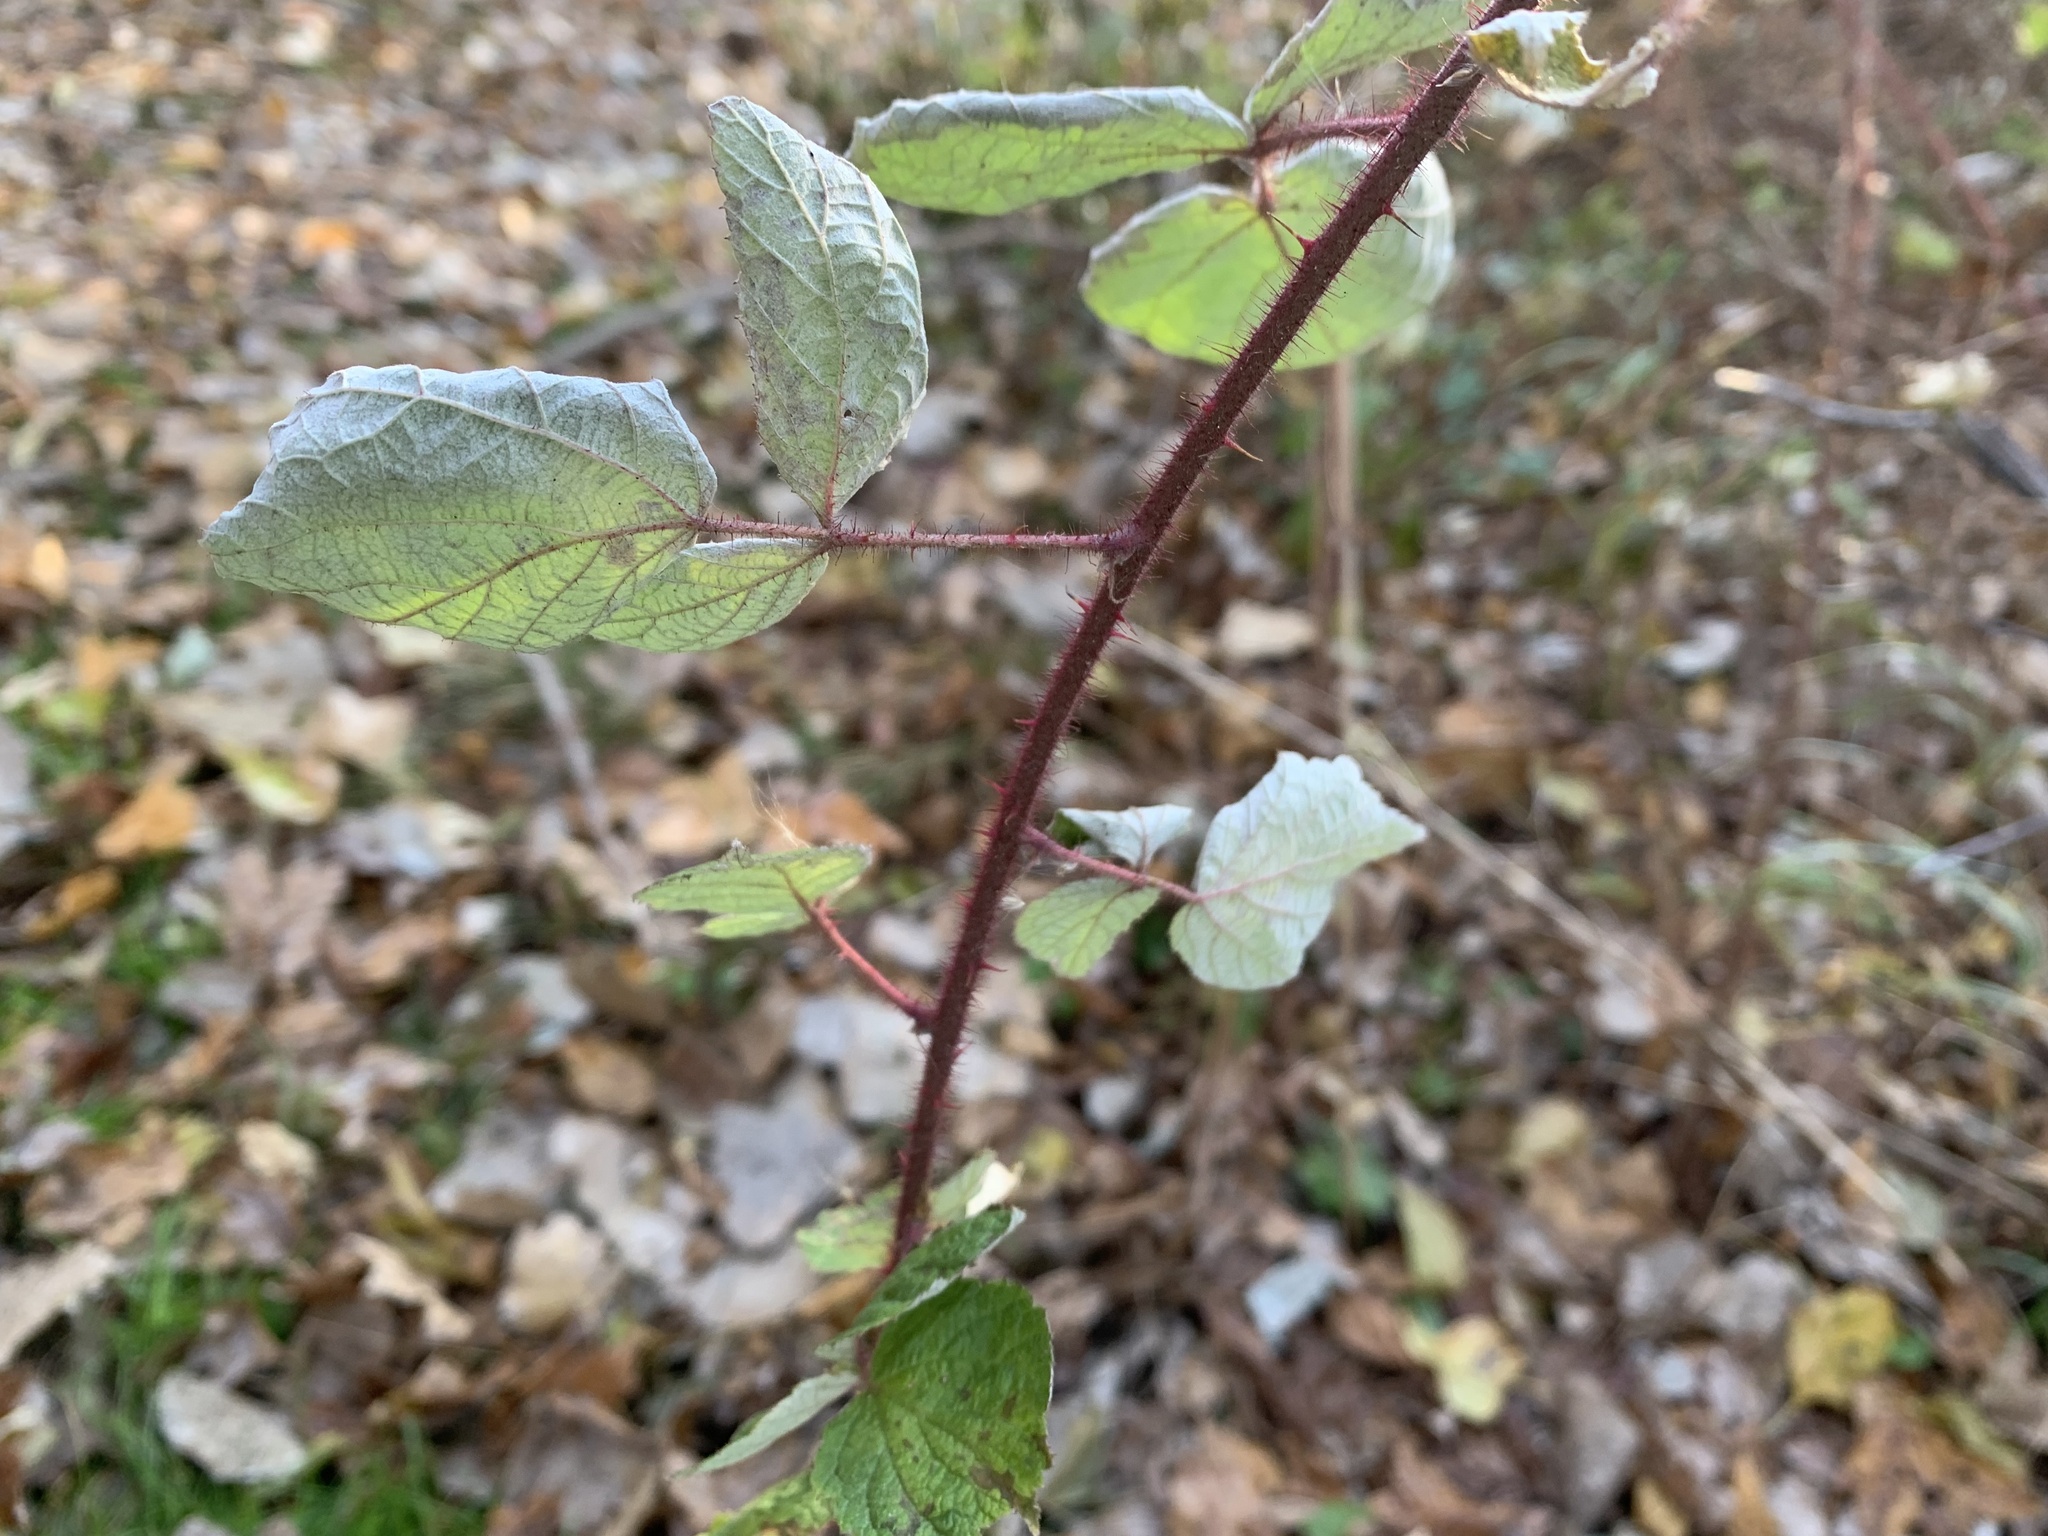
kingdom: Plantae
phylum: Tracheophyta
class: Magnoliopsida
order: Rosales
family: Rosaceae
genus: Rubus
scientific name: Rubus phoenicolasius
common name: Japanese wineberry
